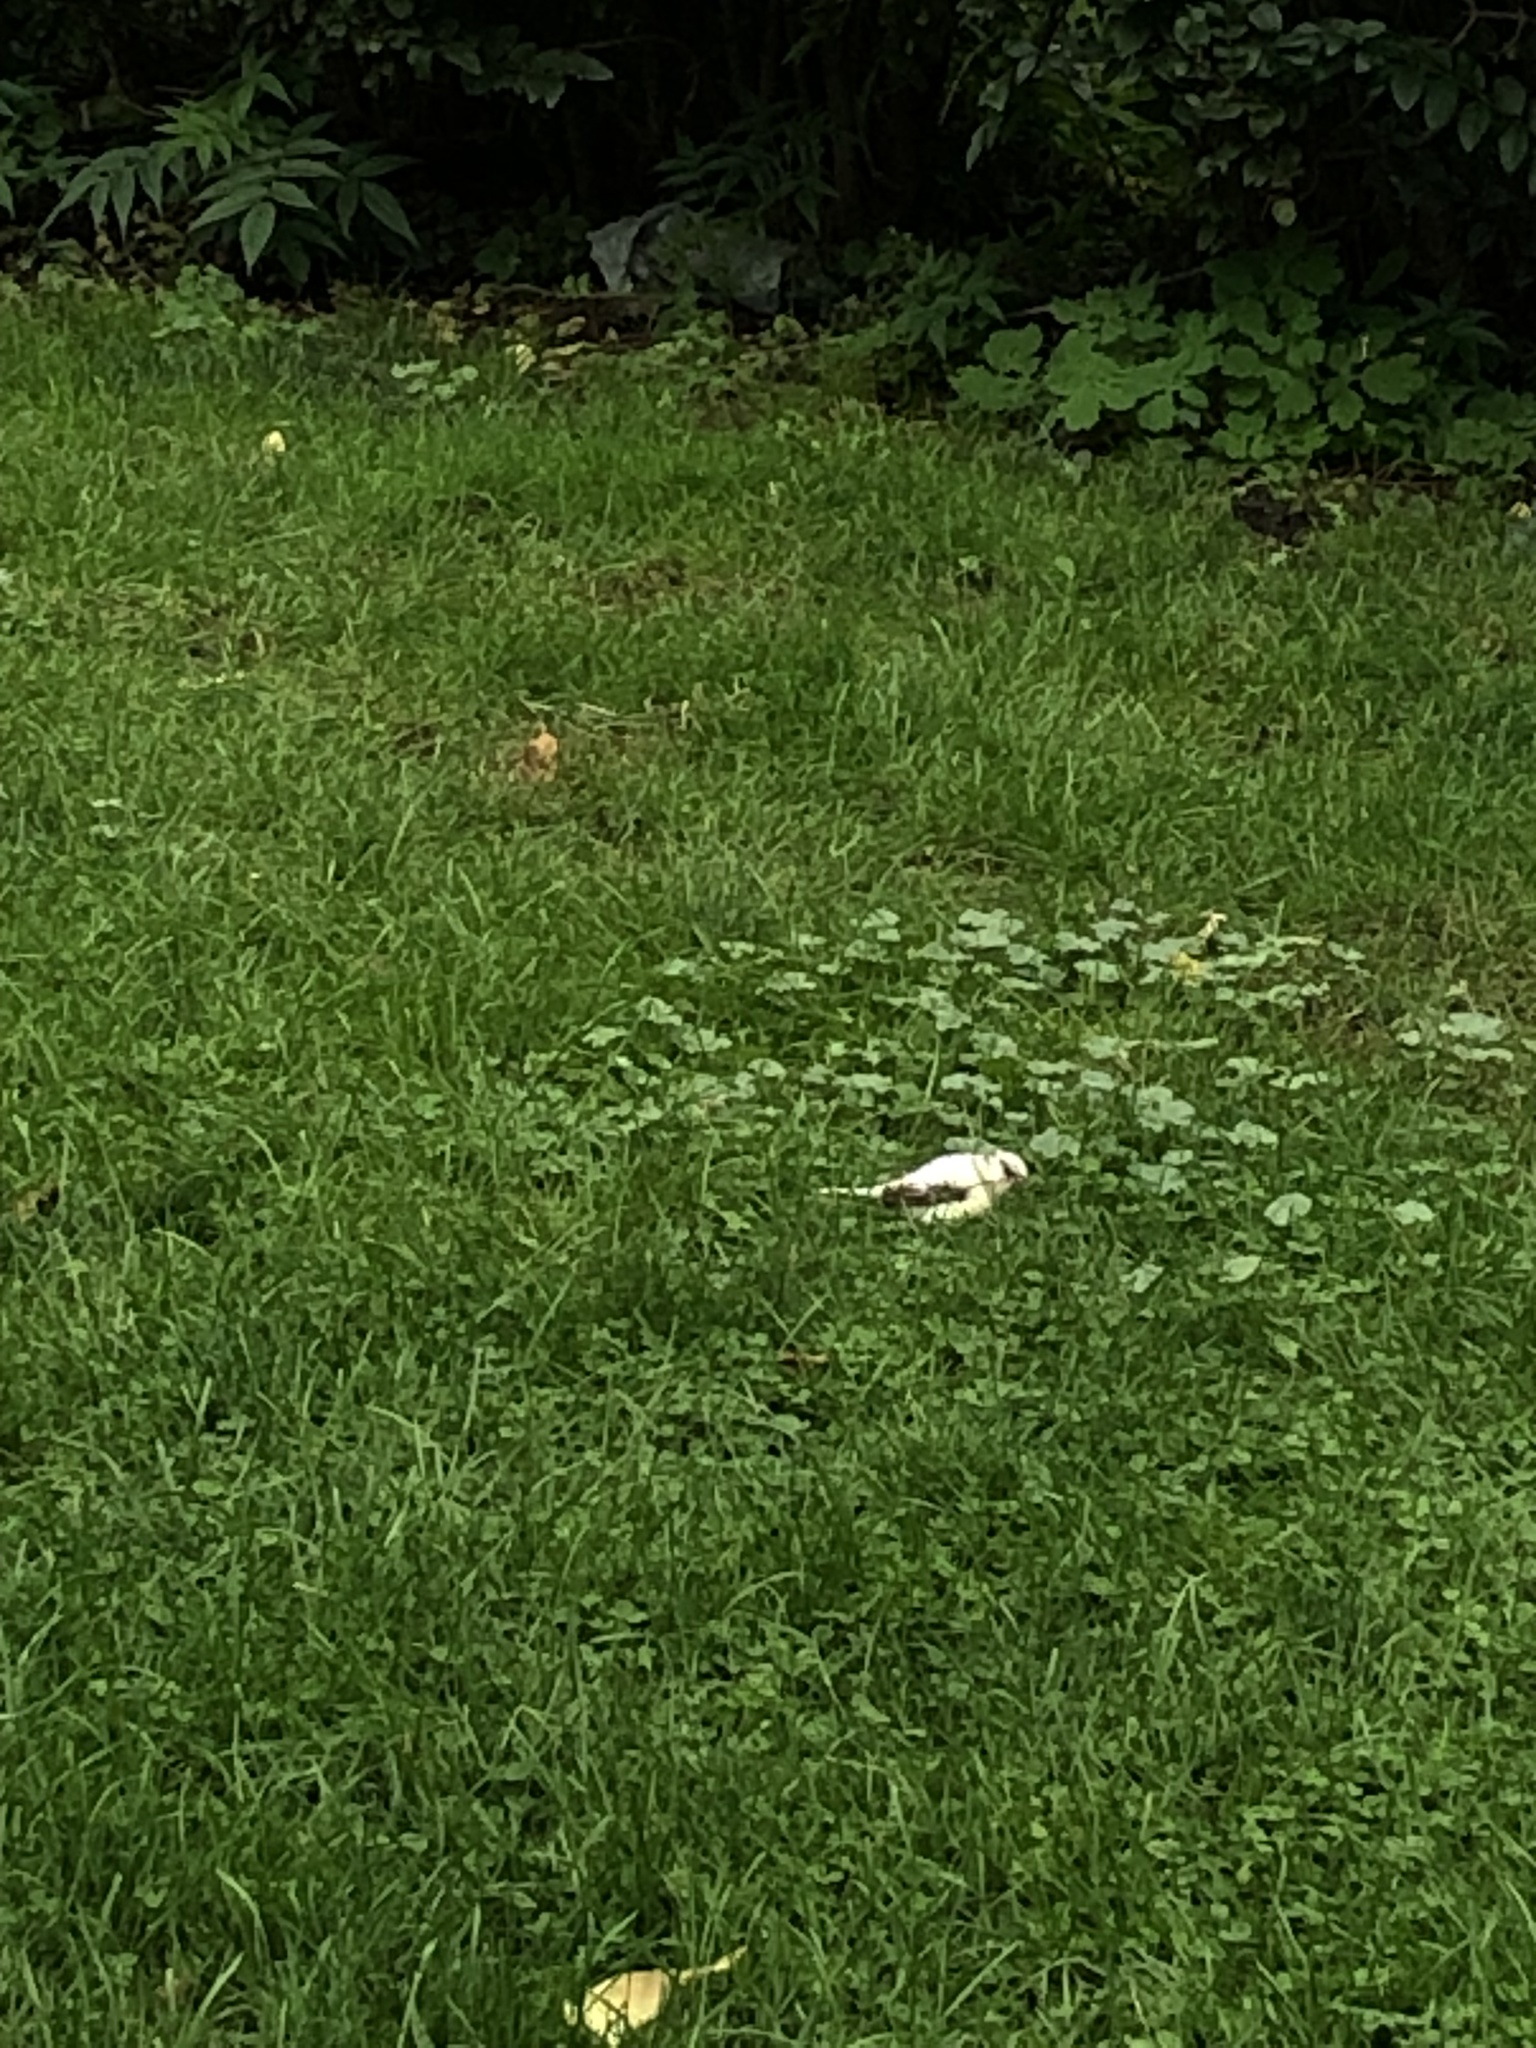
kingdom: Animalia
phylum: Chordata
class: Aves
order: Passeriformes
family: Passerellidae
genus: Junco
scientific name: Junco hyemalis
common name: Dark-eyed junco
